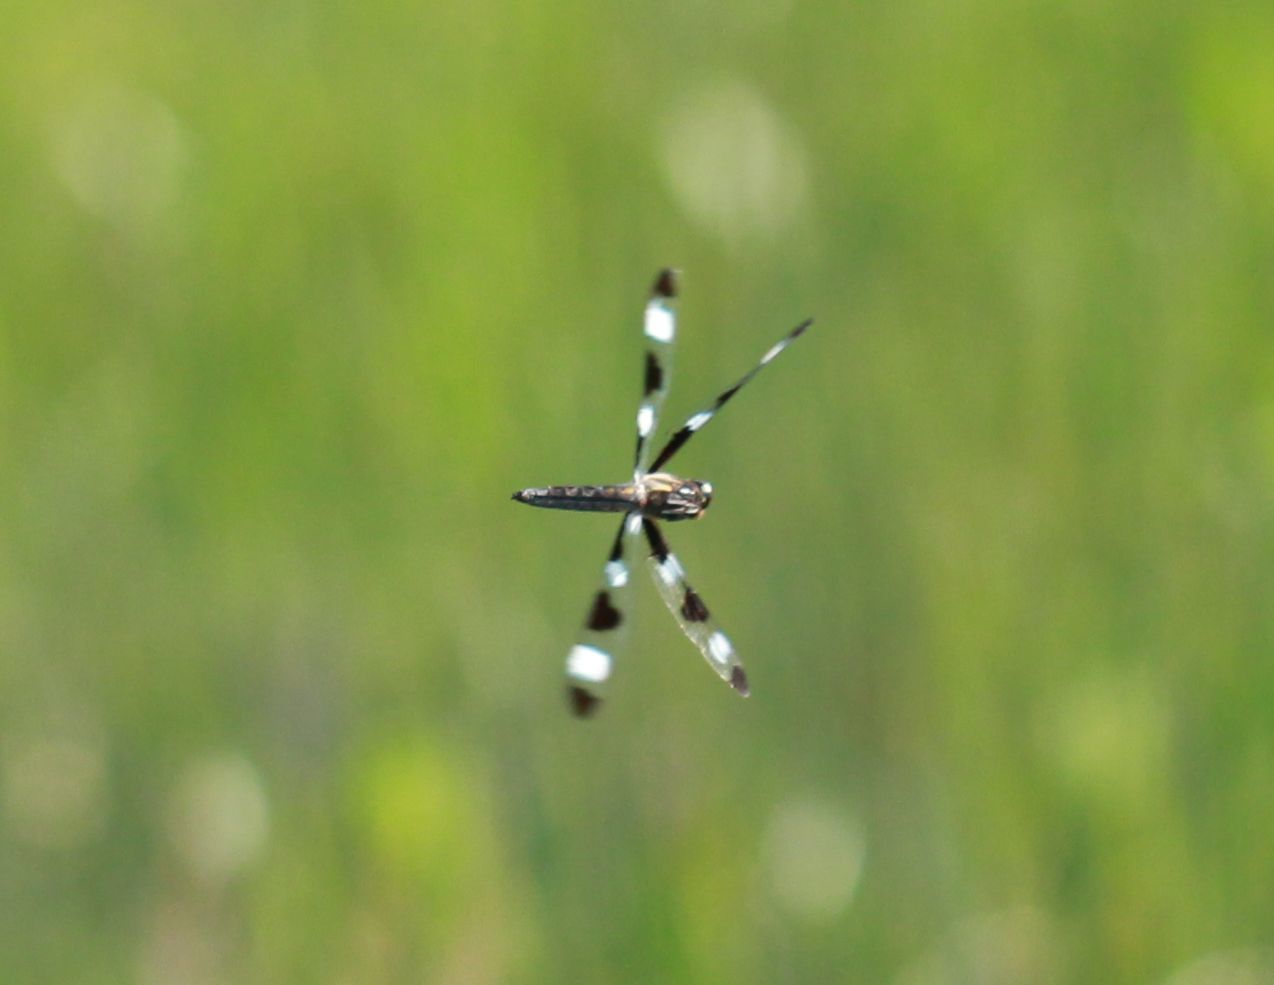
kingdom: Animalia
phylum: Arthropoda
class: Insecta
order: Odonata
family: Libellulidae
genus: Libellula
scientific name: Libellula pulchella
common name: Twelve-spotted skimmer
